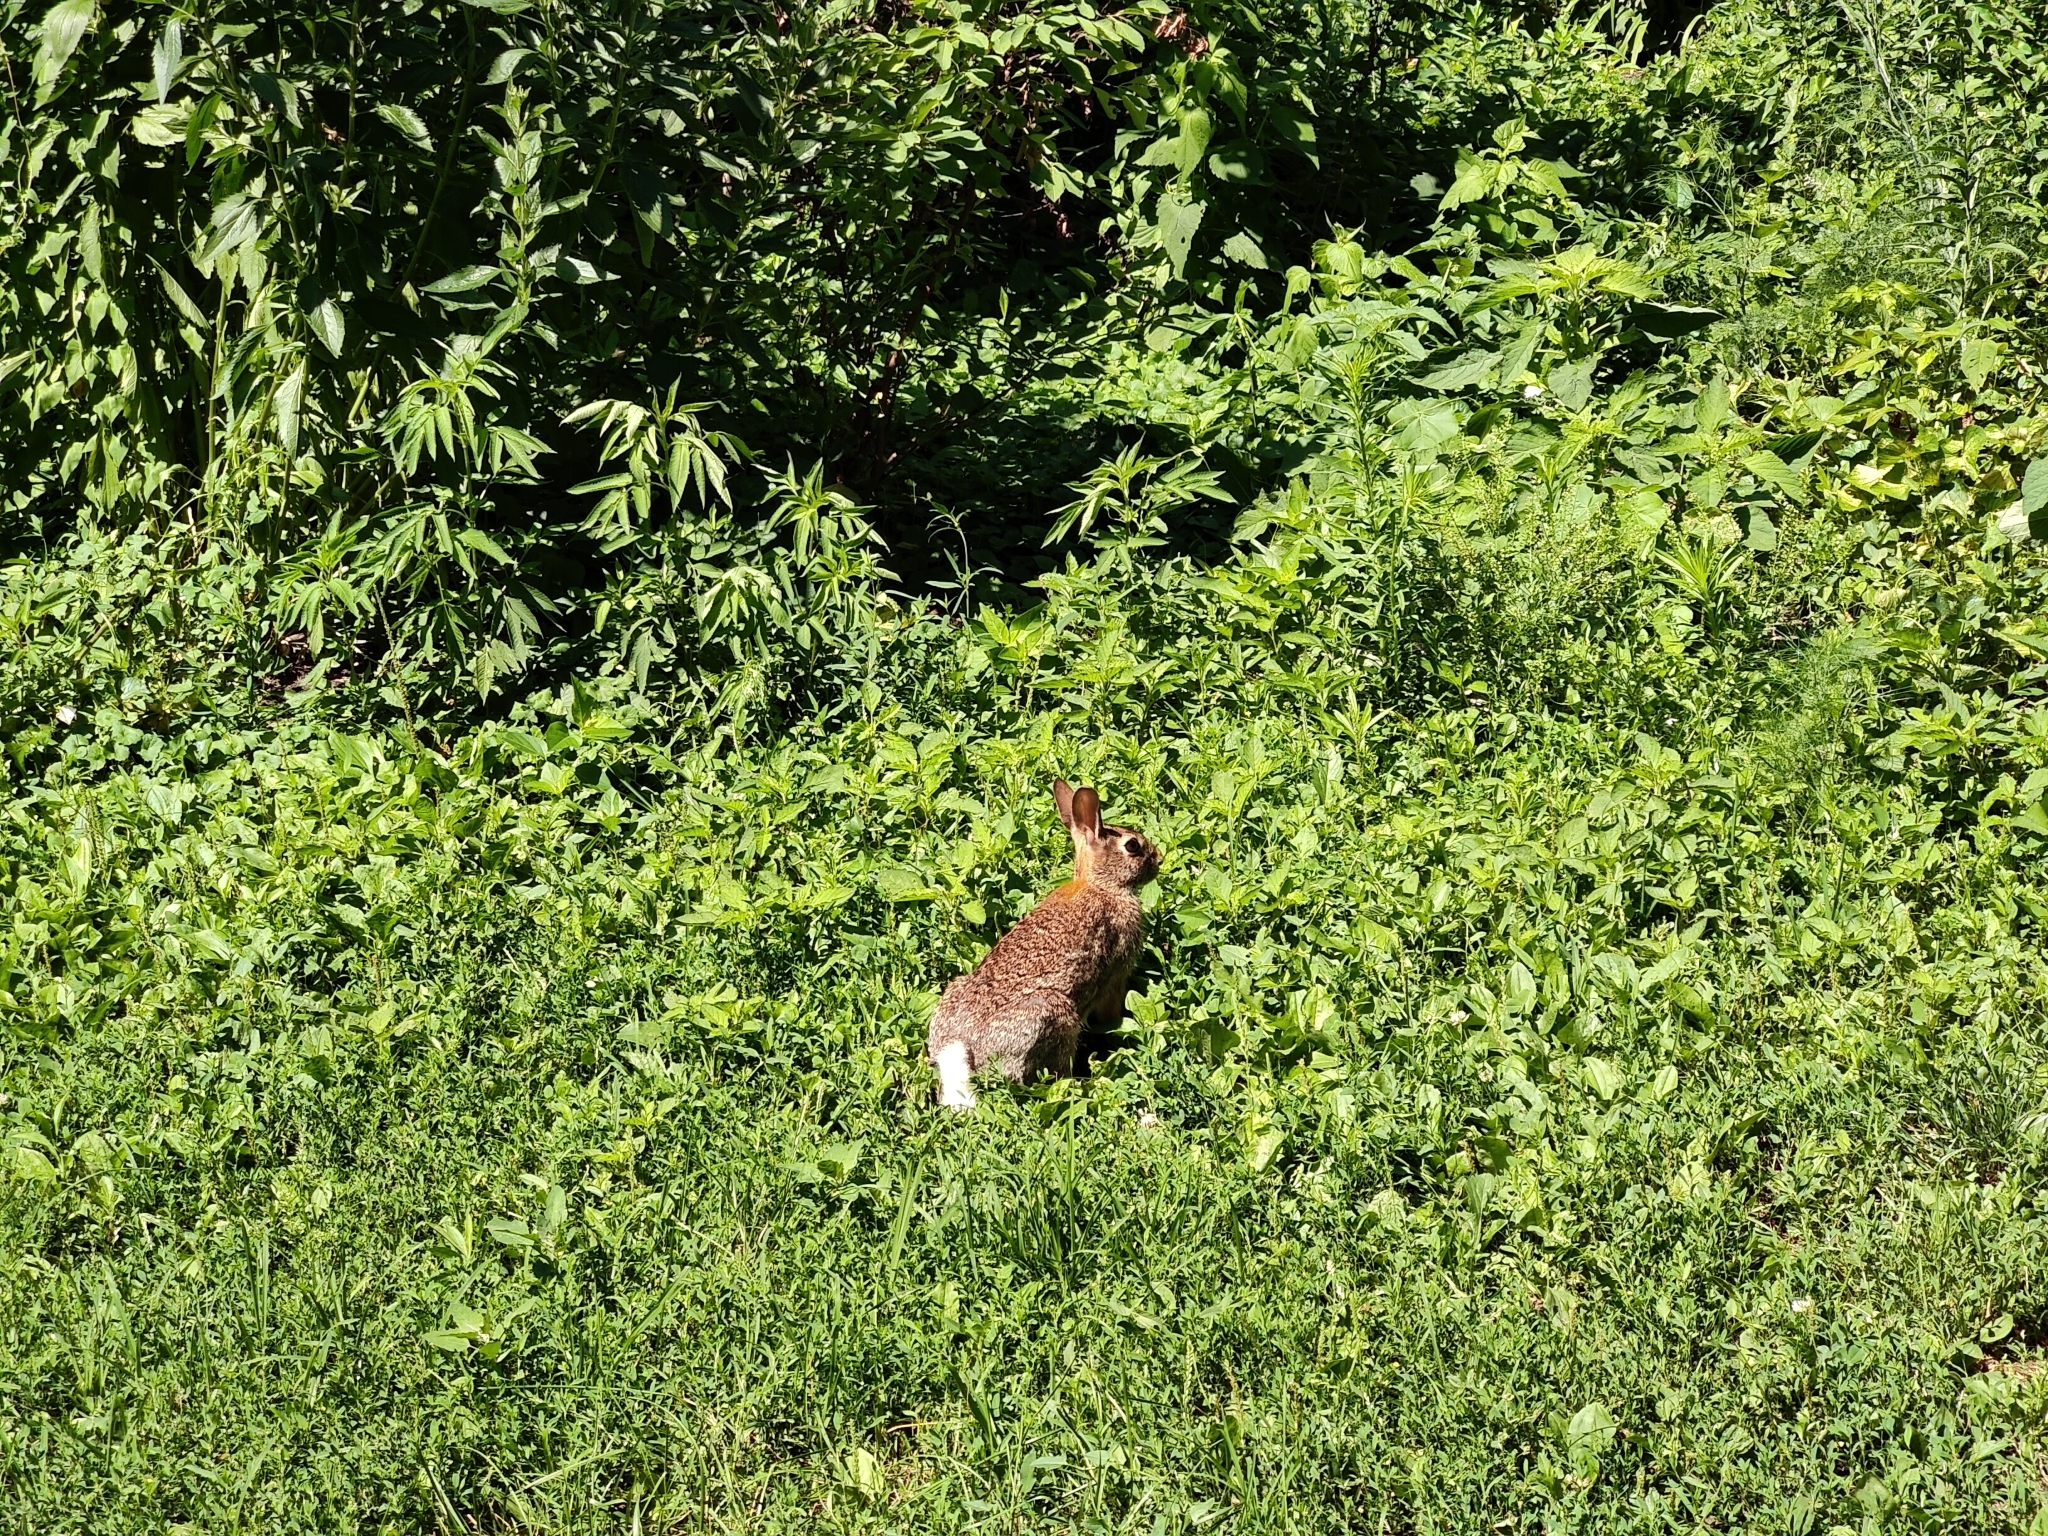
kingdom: Animalia
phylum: Chordata
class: Mammalia
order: Lagomorpha
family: Leporidae
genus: Sylvilagus
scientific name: Sylvilagus floridanus
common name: Eastern cottontail
